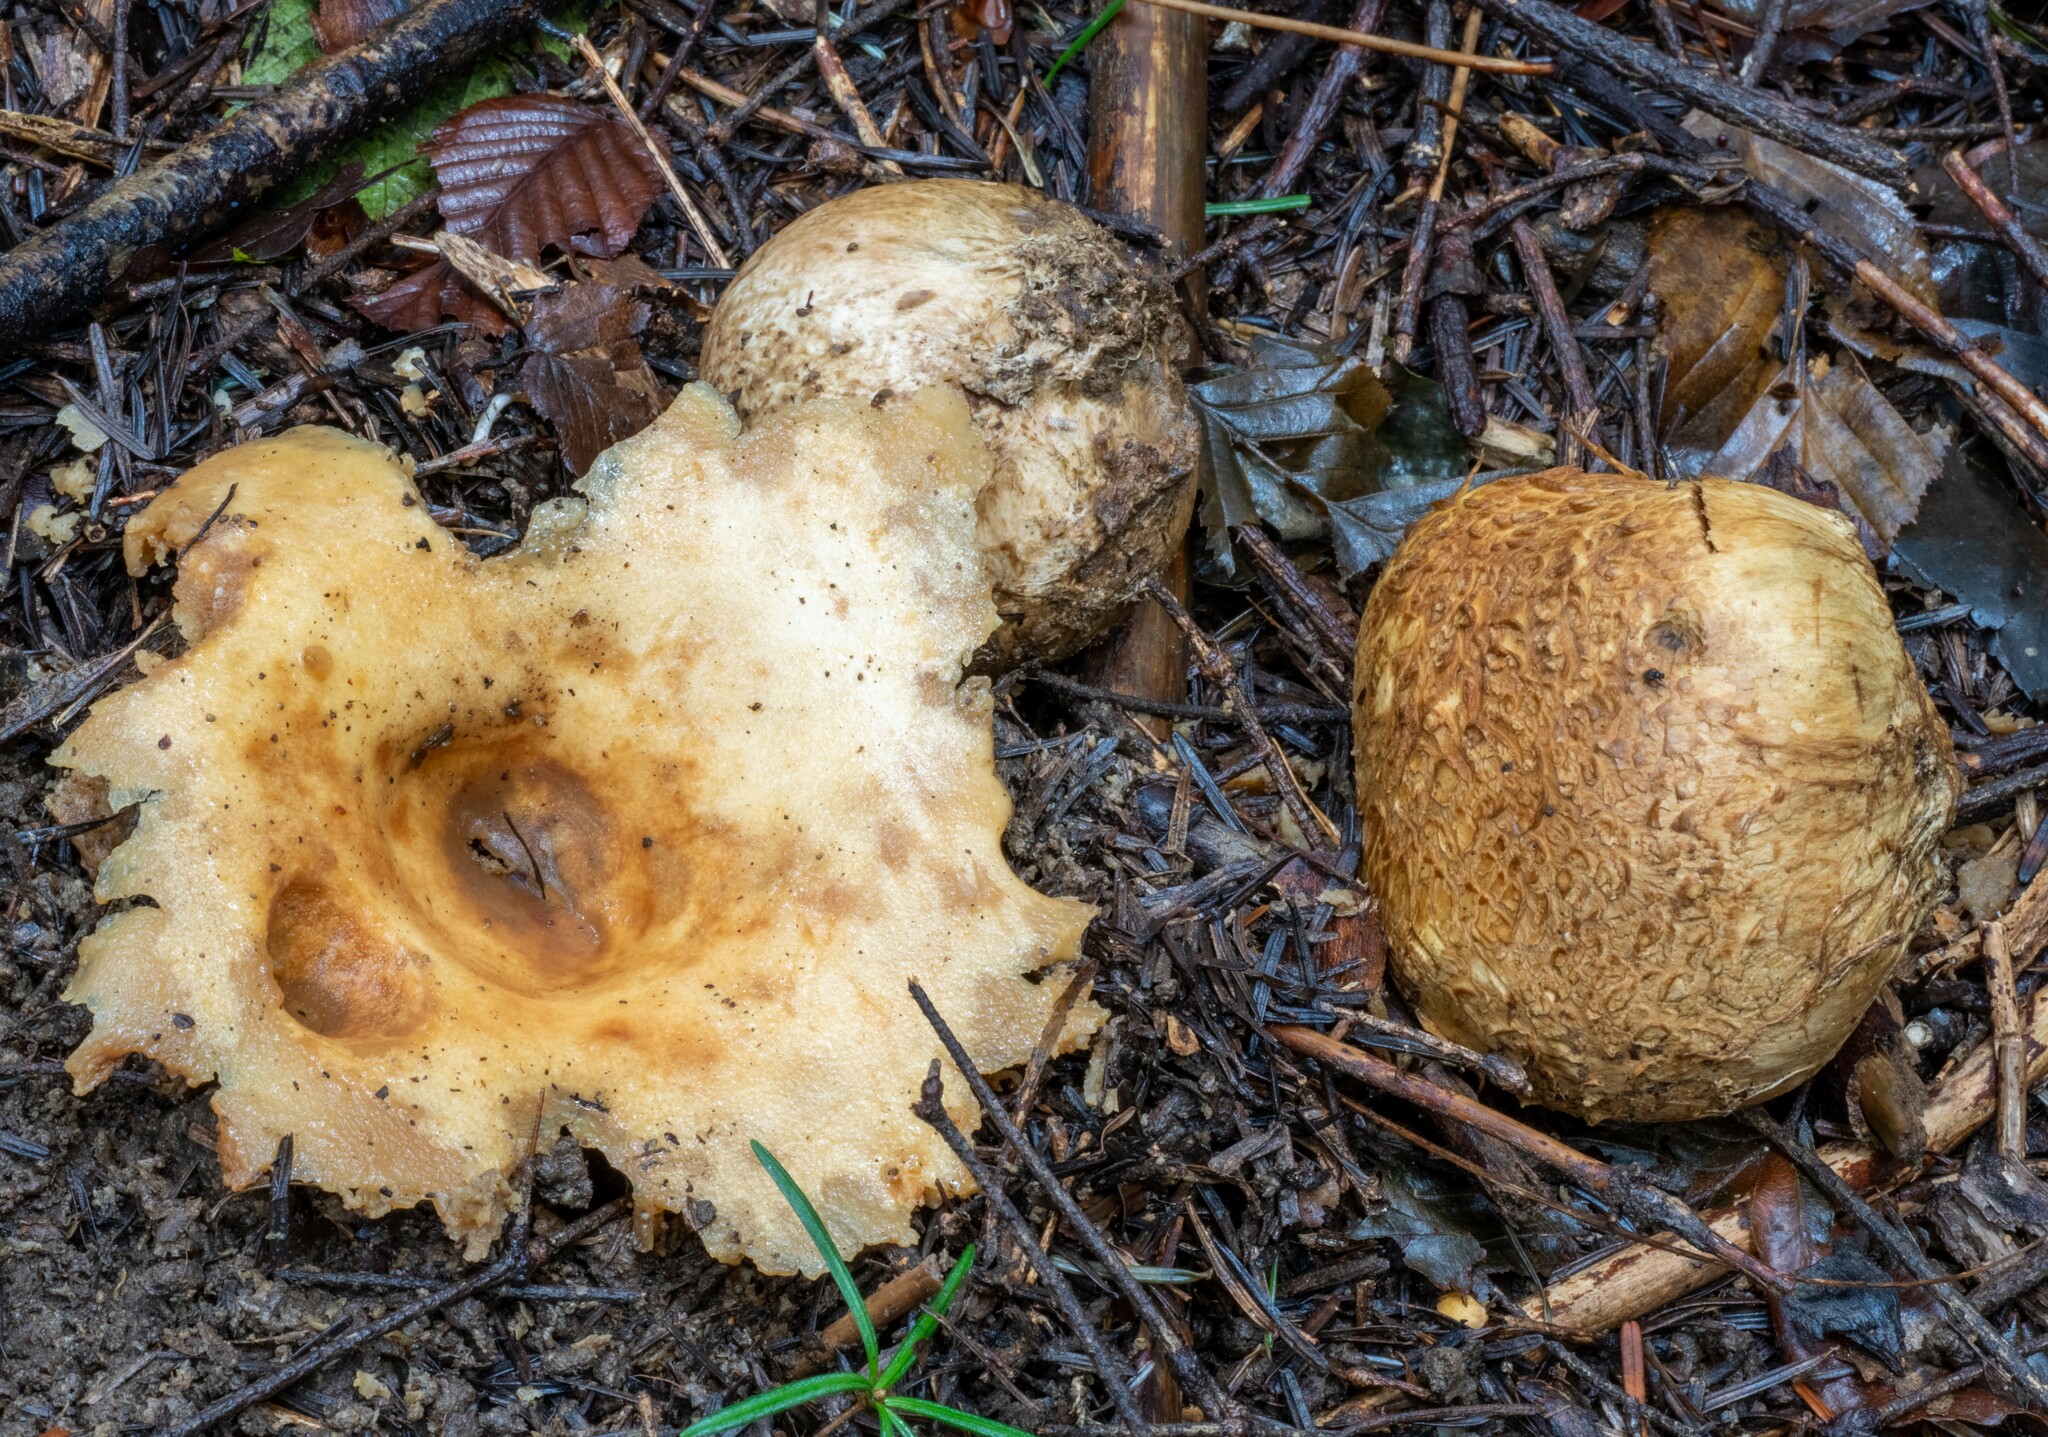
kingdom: Fungi
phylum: Basidiomycota
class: Agaricomycetes
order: Boletales
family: Sclerodermataceae
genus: Scleroderma
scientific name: Scleroderma citrinum
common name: Common earthball
